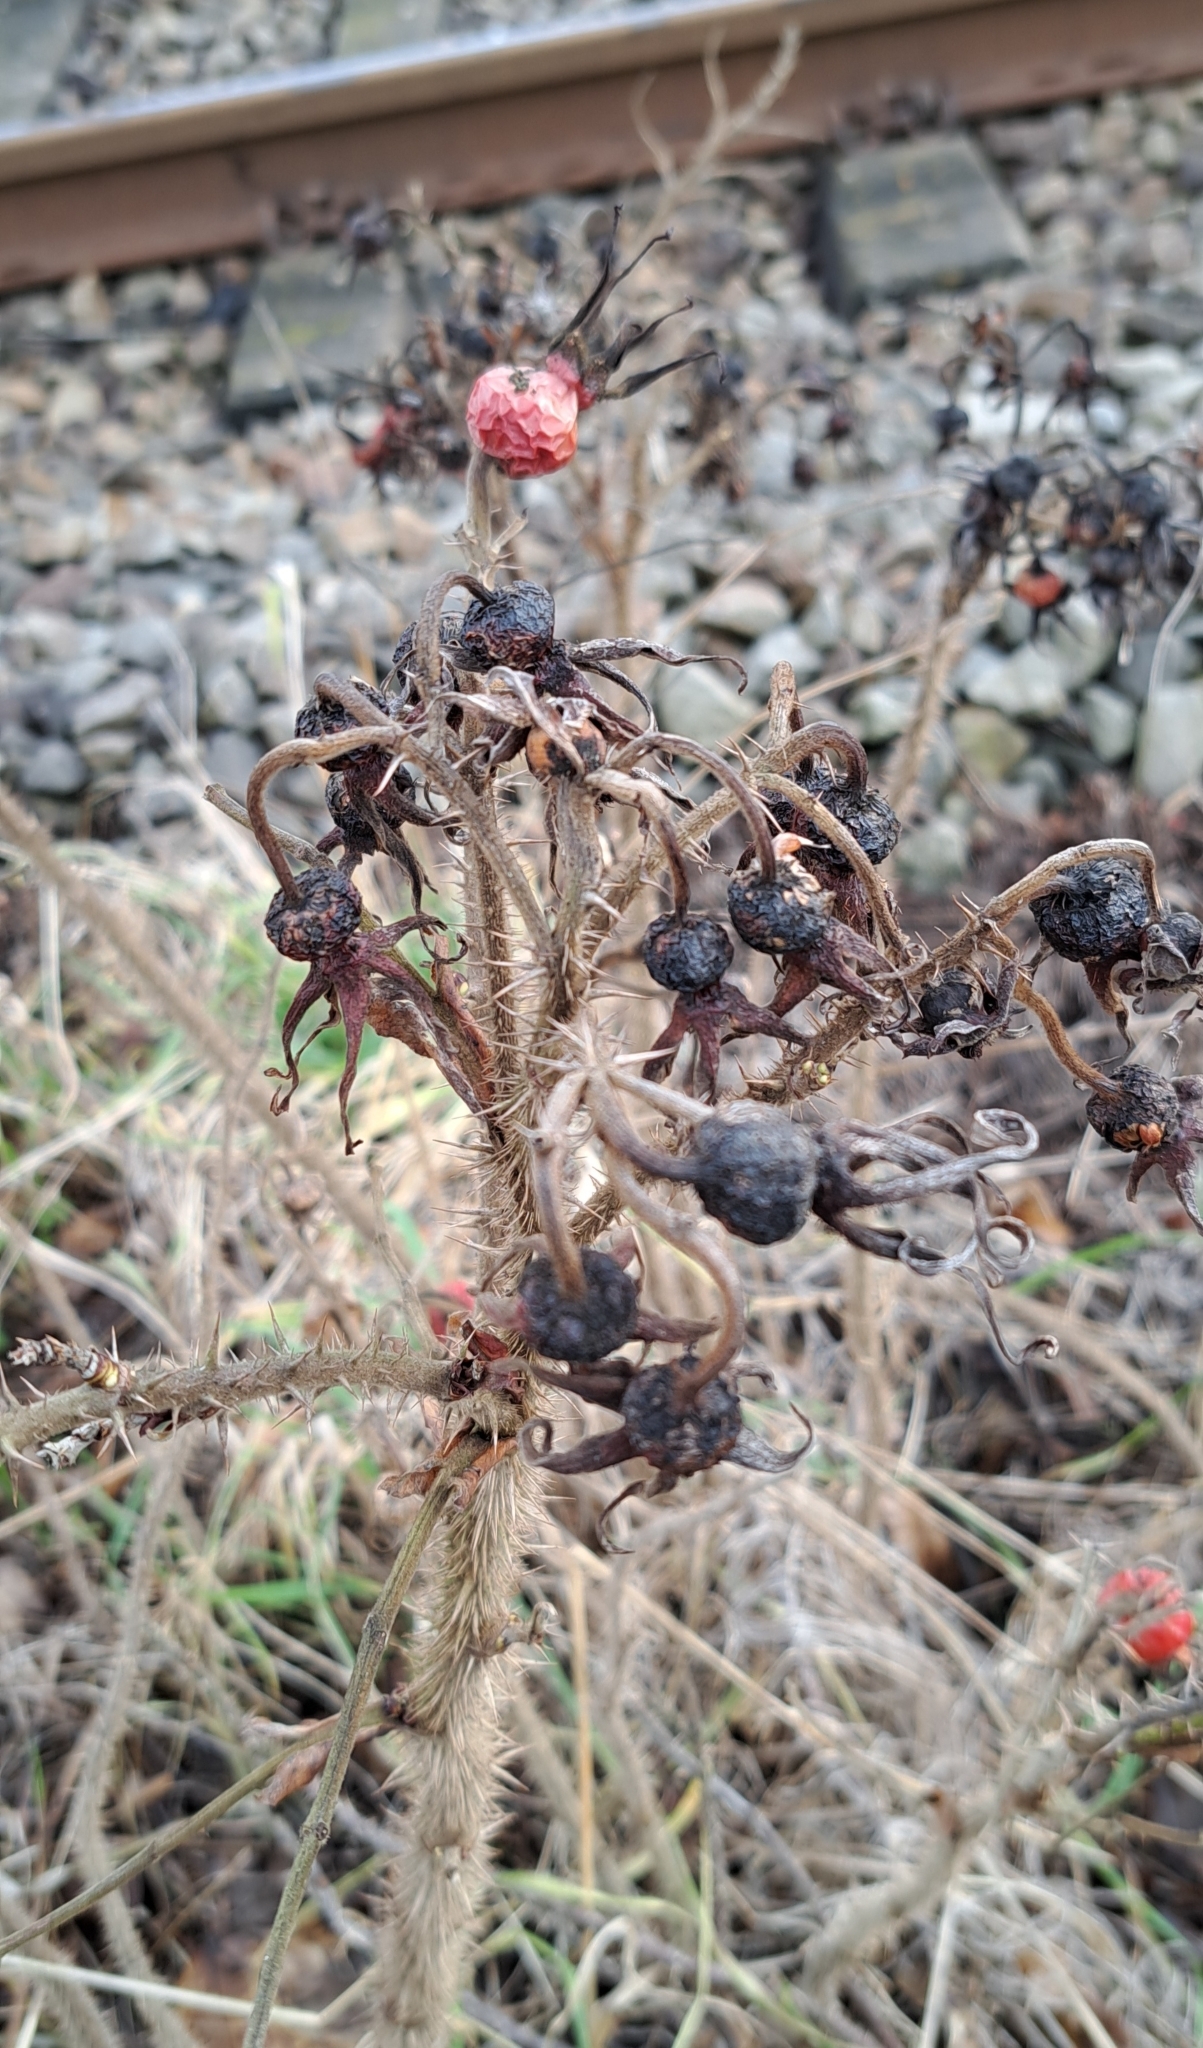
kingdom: Plantae
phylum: Tracheophyta
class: Magnoliopsida
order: Rosales
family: Rosaceae
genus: Rosa
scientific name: Rosa rugosa
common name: Japanese rose
